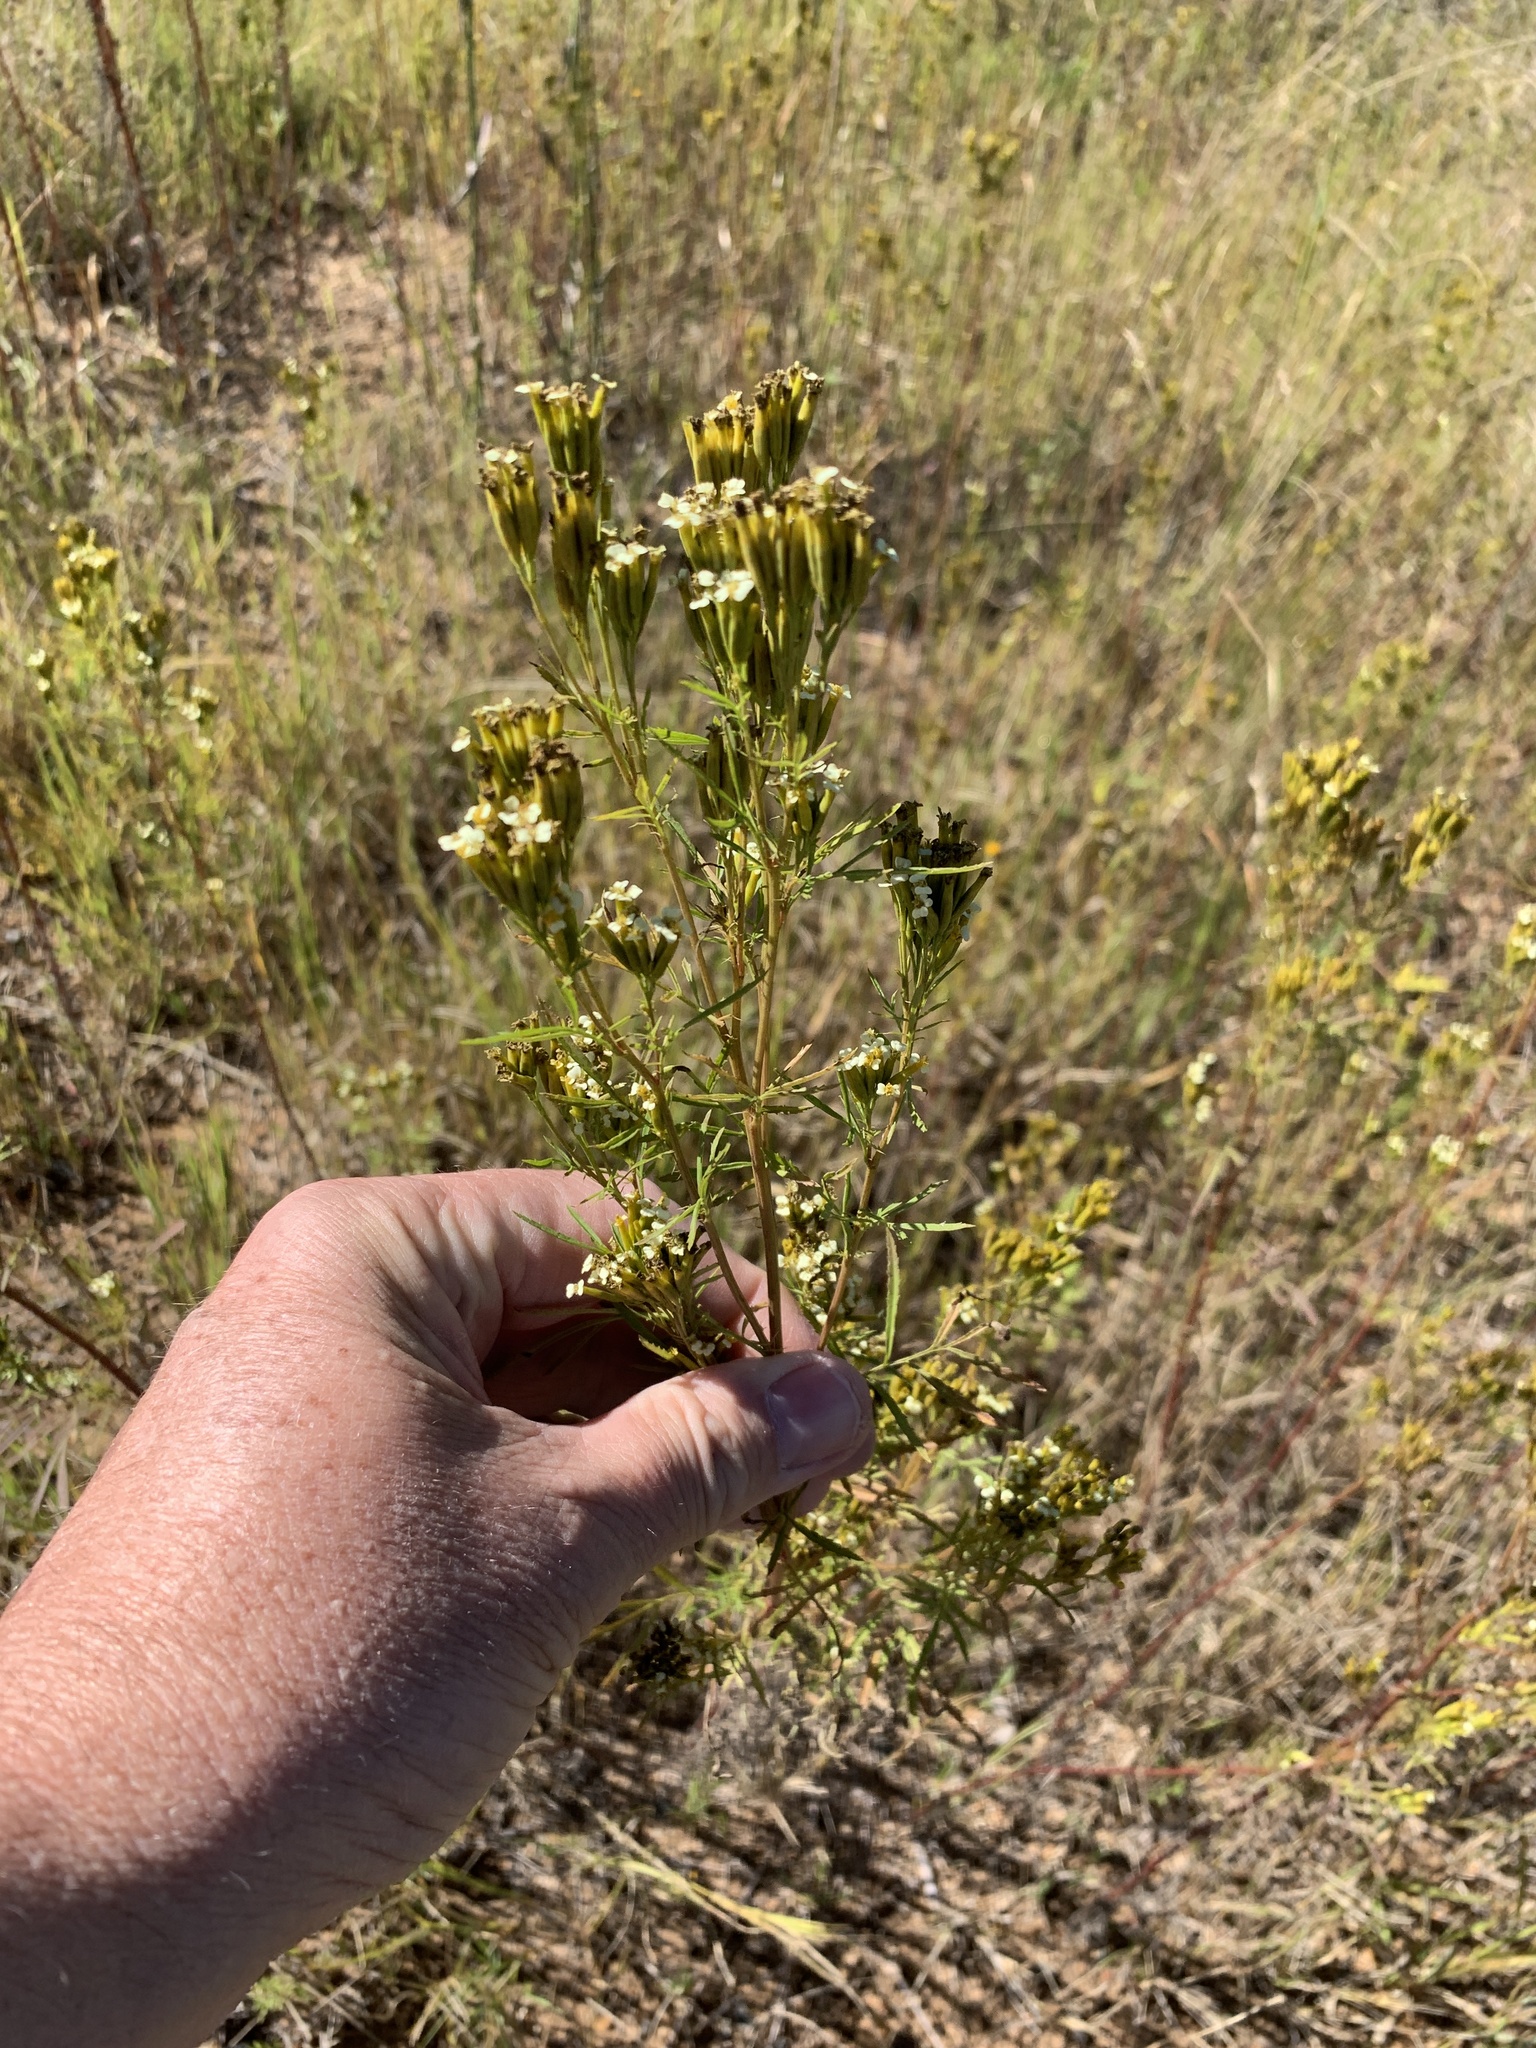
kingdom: Plantae
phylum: Tracheophyta
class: Magnoliopsida
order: Asterales
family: Asteraceae
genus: Tagetes
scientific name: Tagetes minuta
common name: Muster john henry
